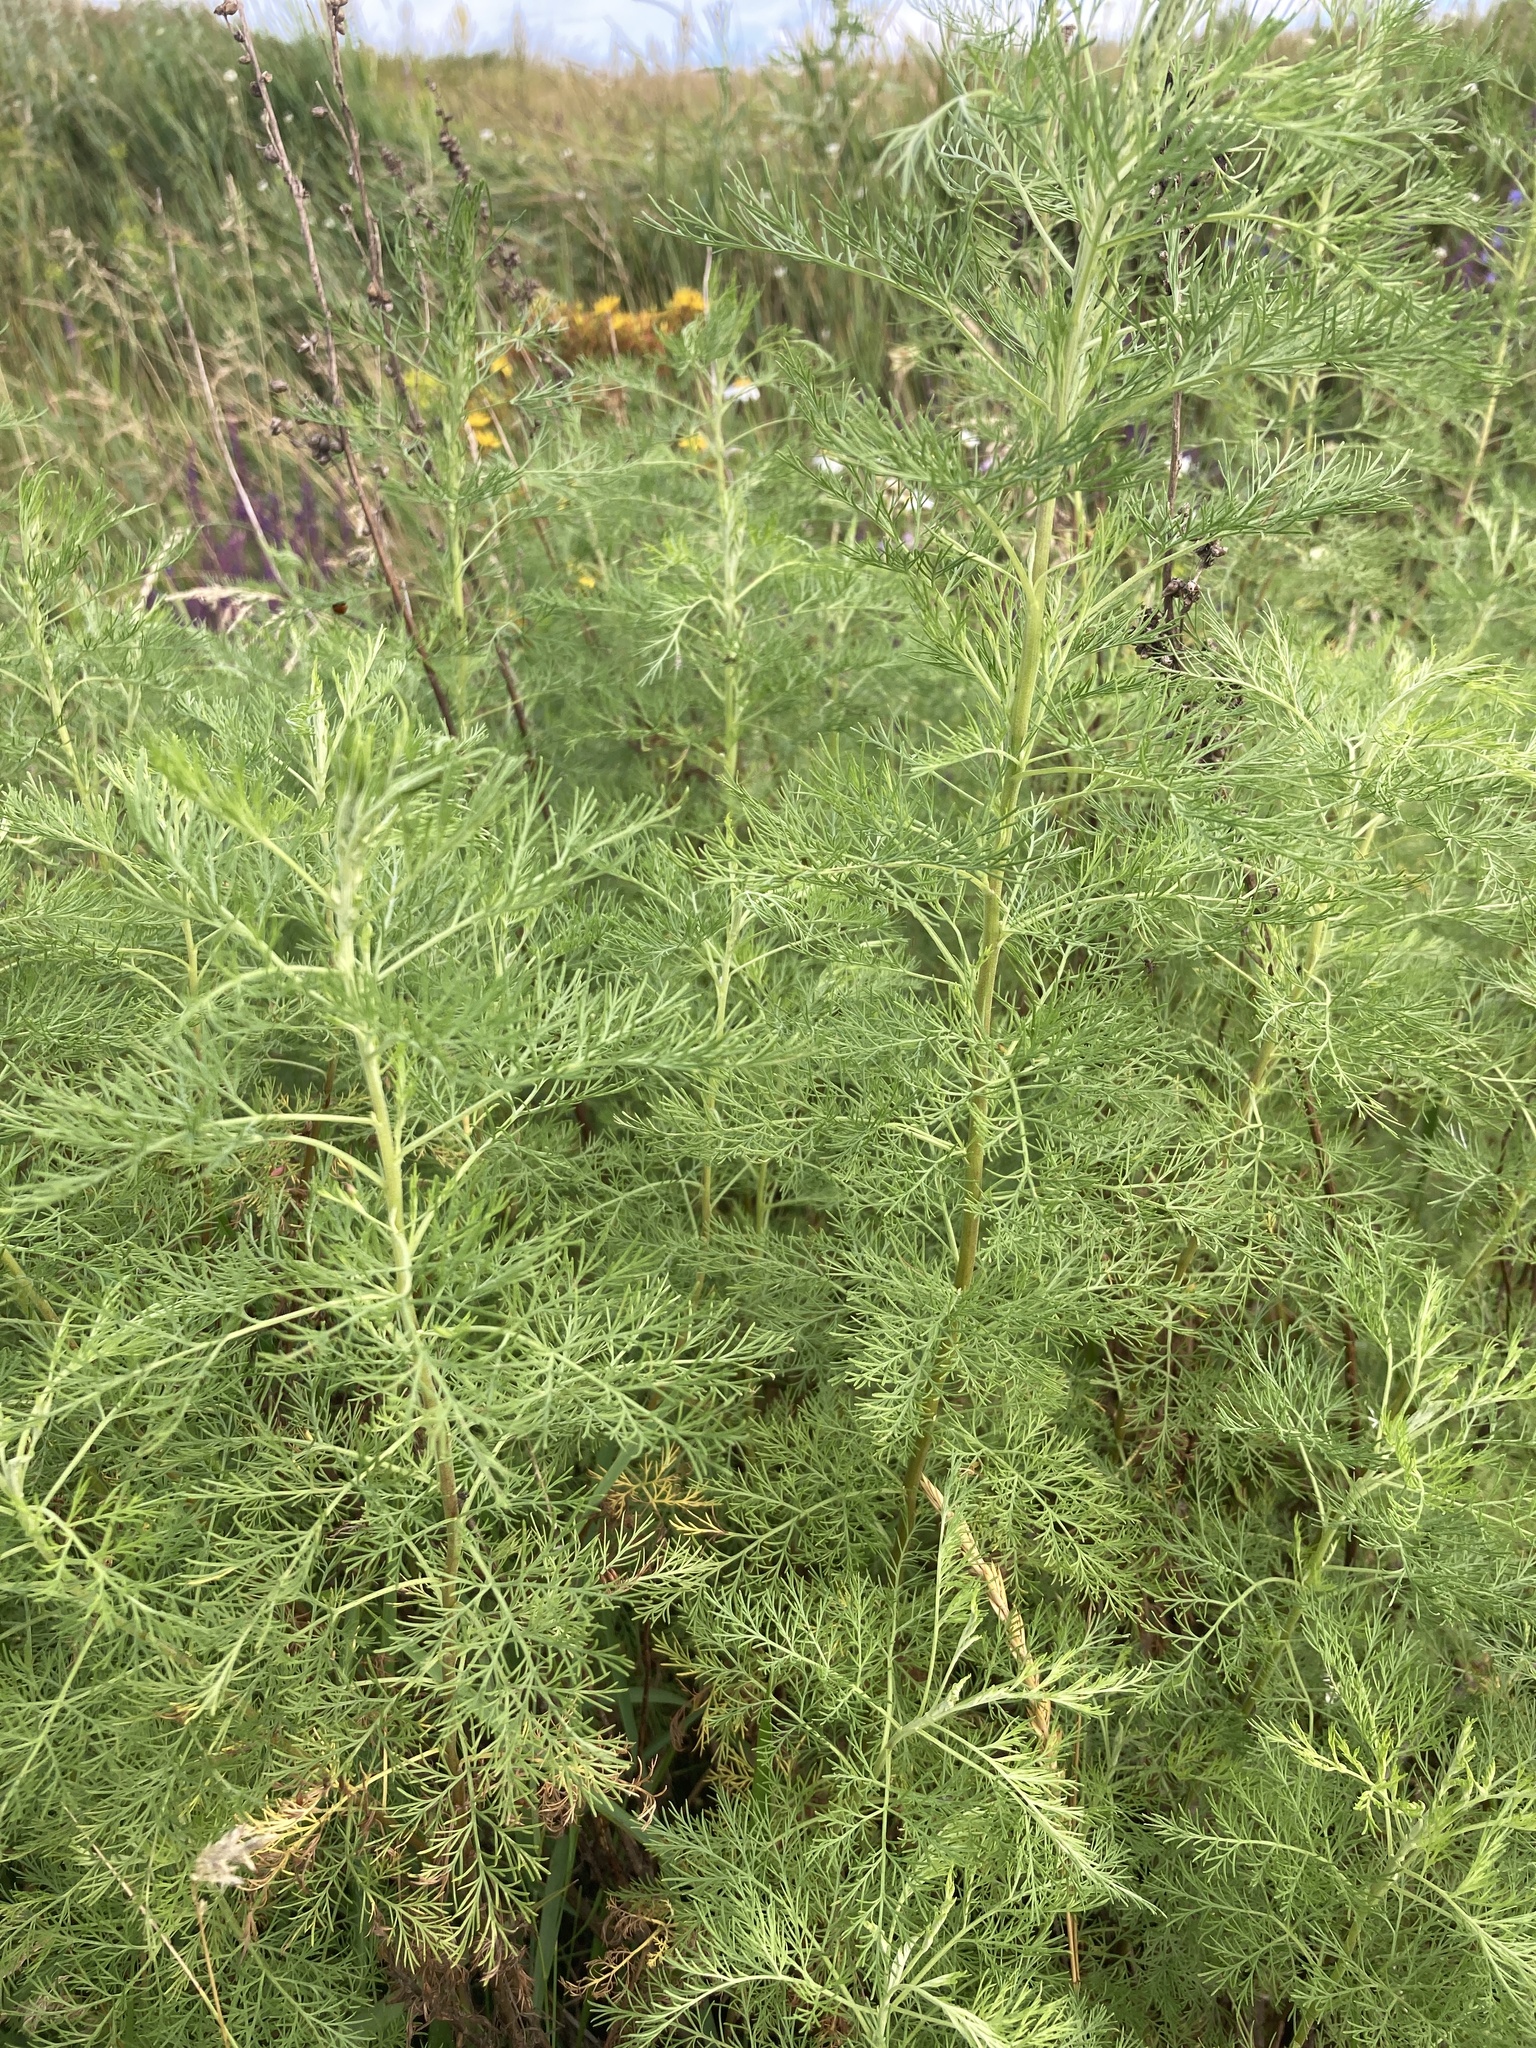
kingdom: Plantae
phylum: Tracheophyta
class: Magnoliopsida
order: Asterales
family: Asteraceae
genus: Artemisia
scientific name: Artemisia abrotanum
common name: Southernwood
